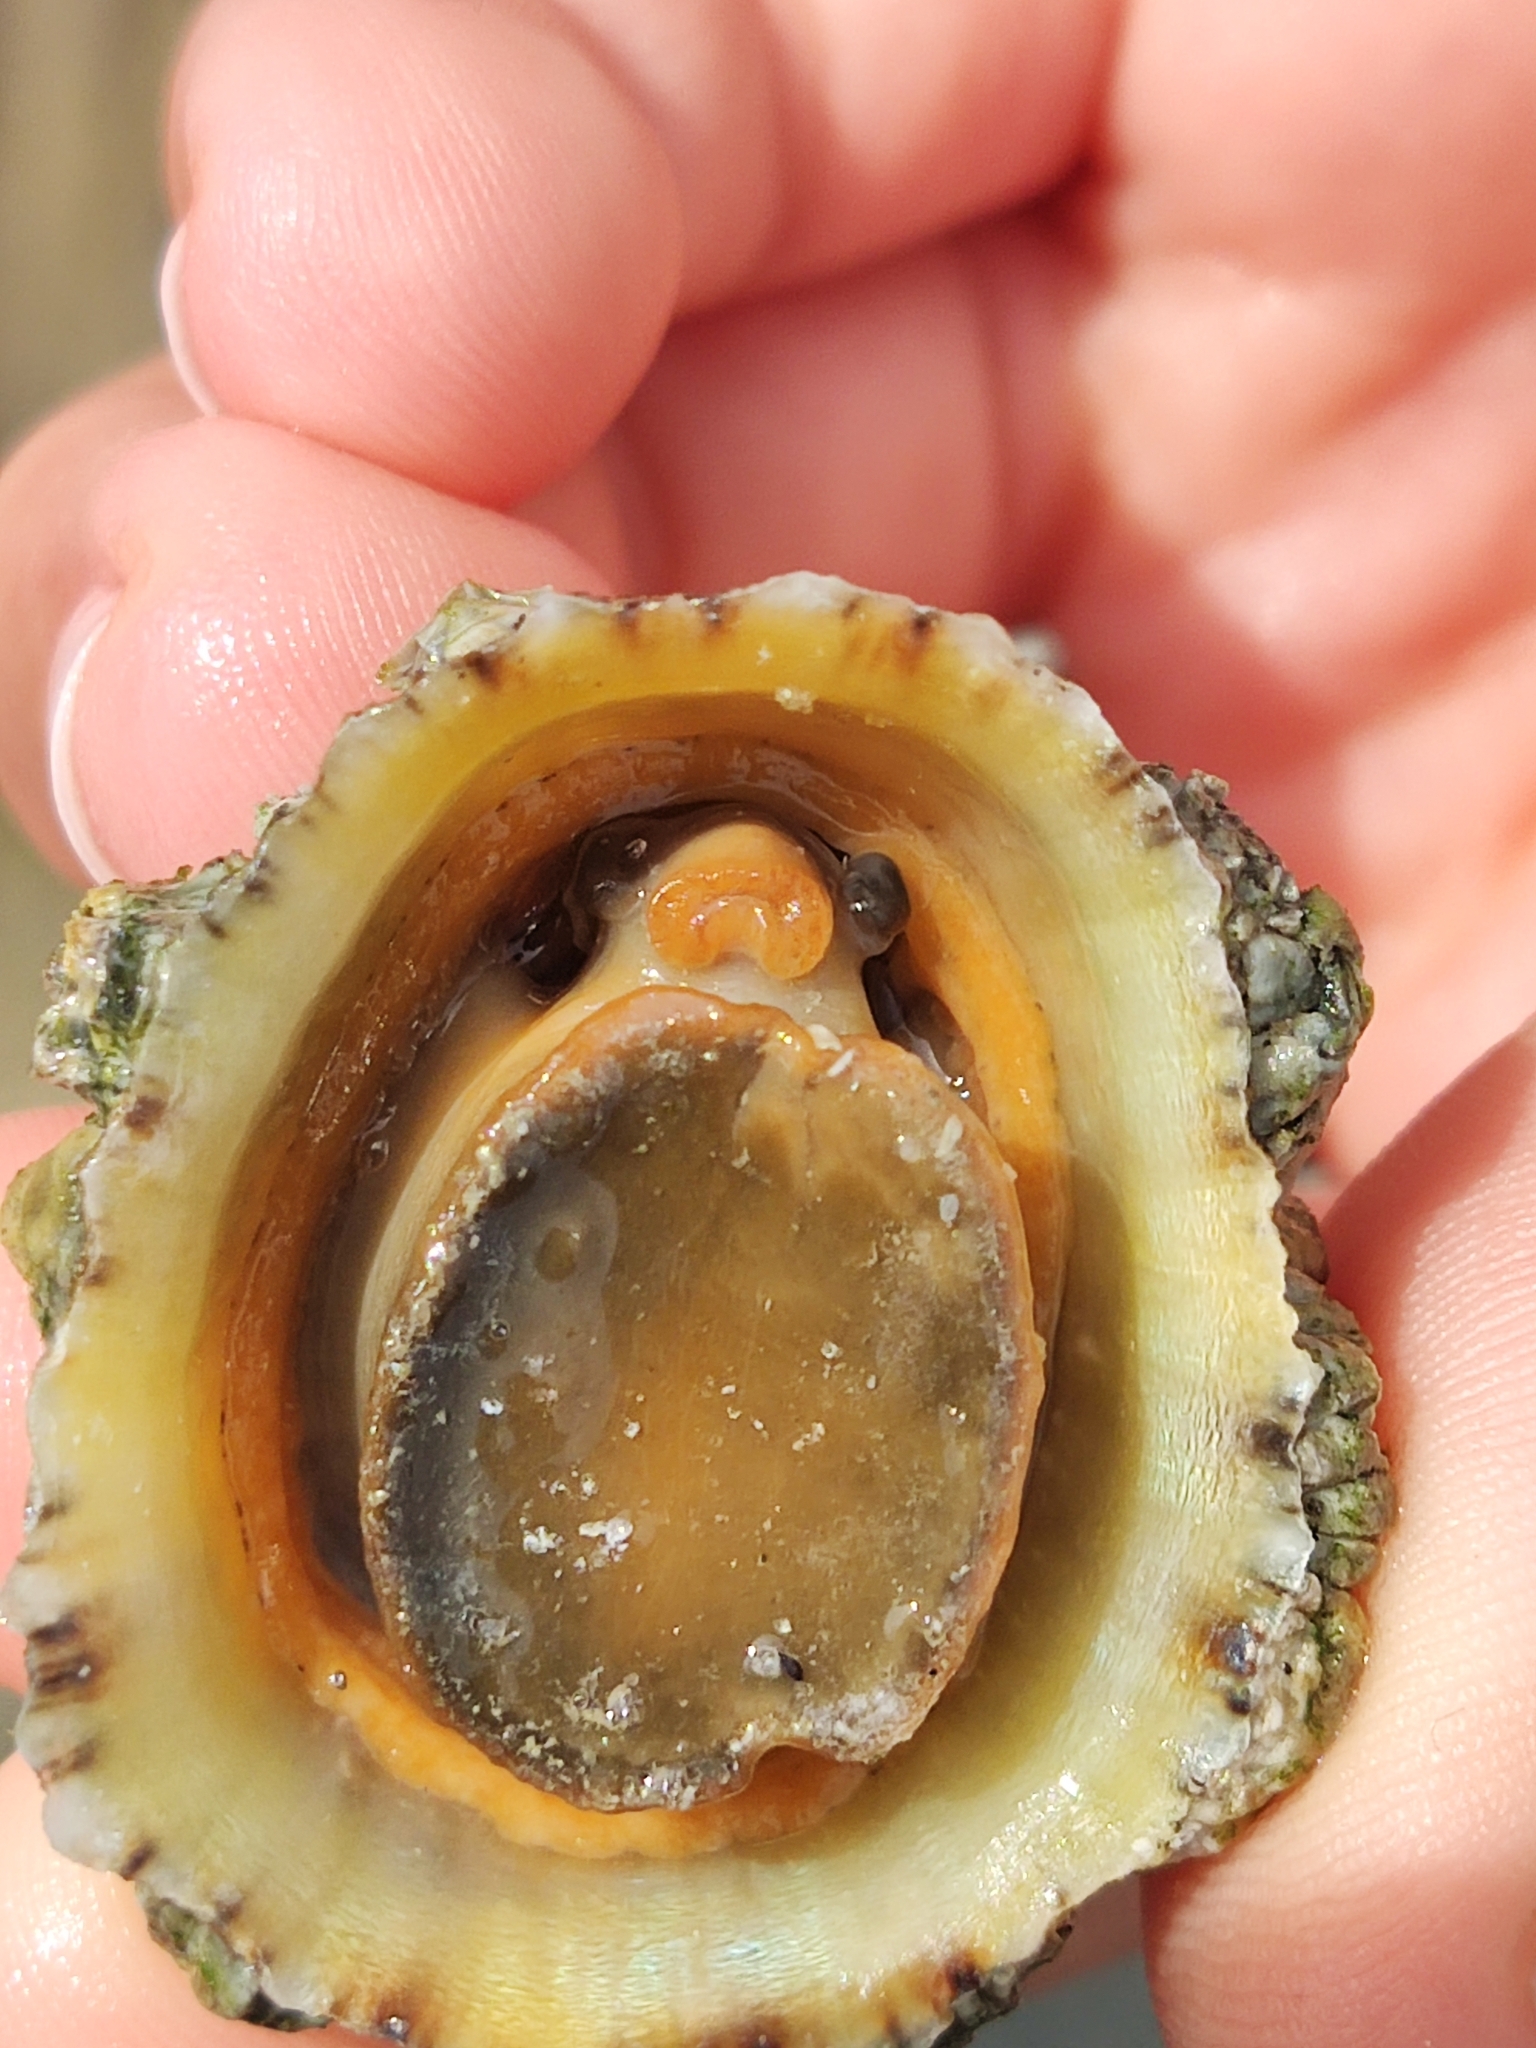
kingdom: Animalia
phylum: Mollusca
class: Gastropoda
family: Patellidae
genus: Patella
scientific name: Patella vulgata
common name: Common limpet
